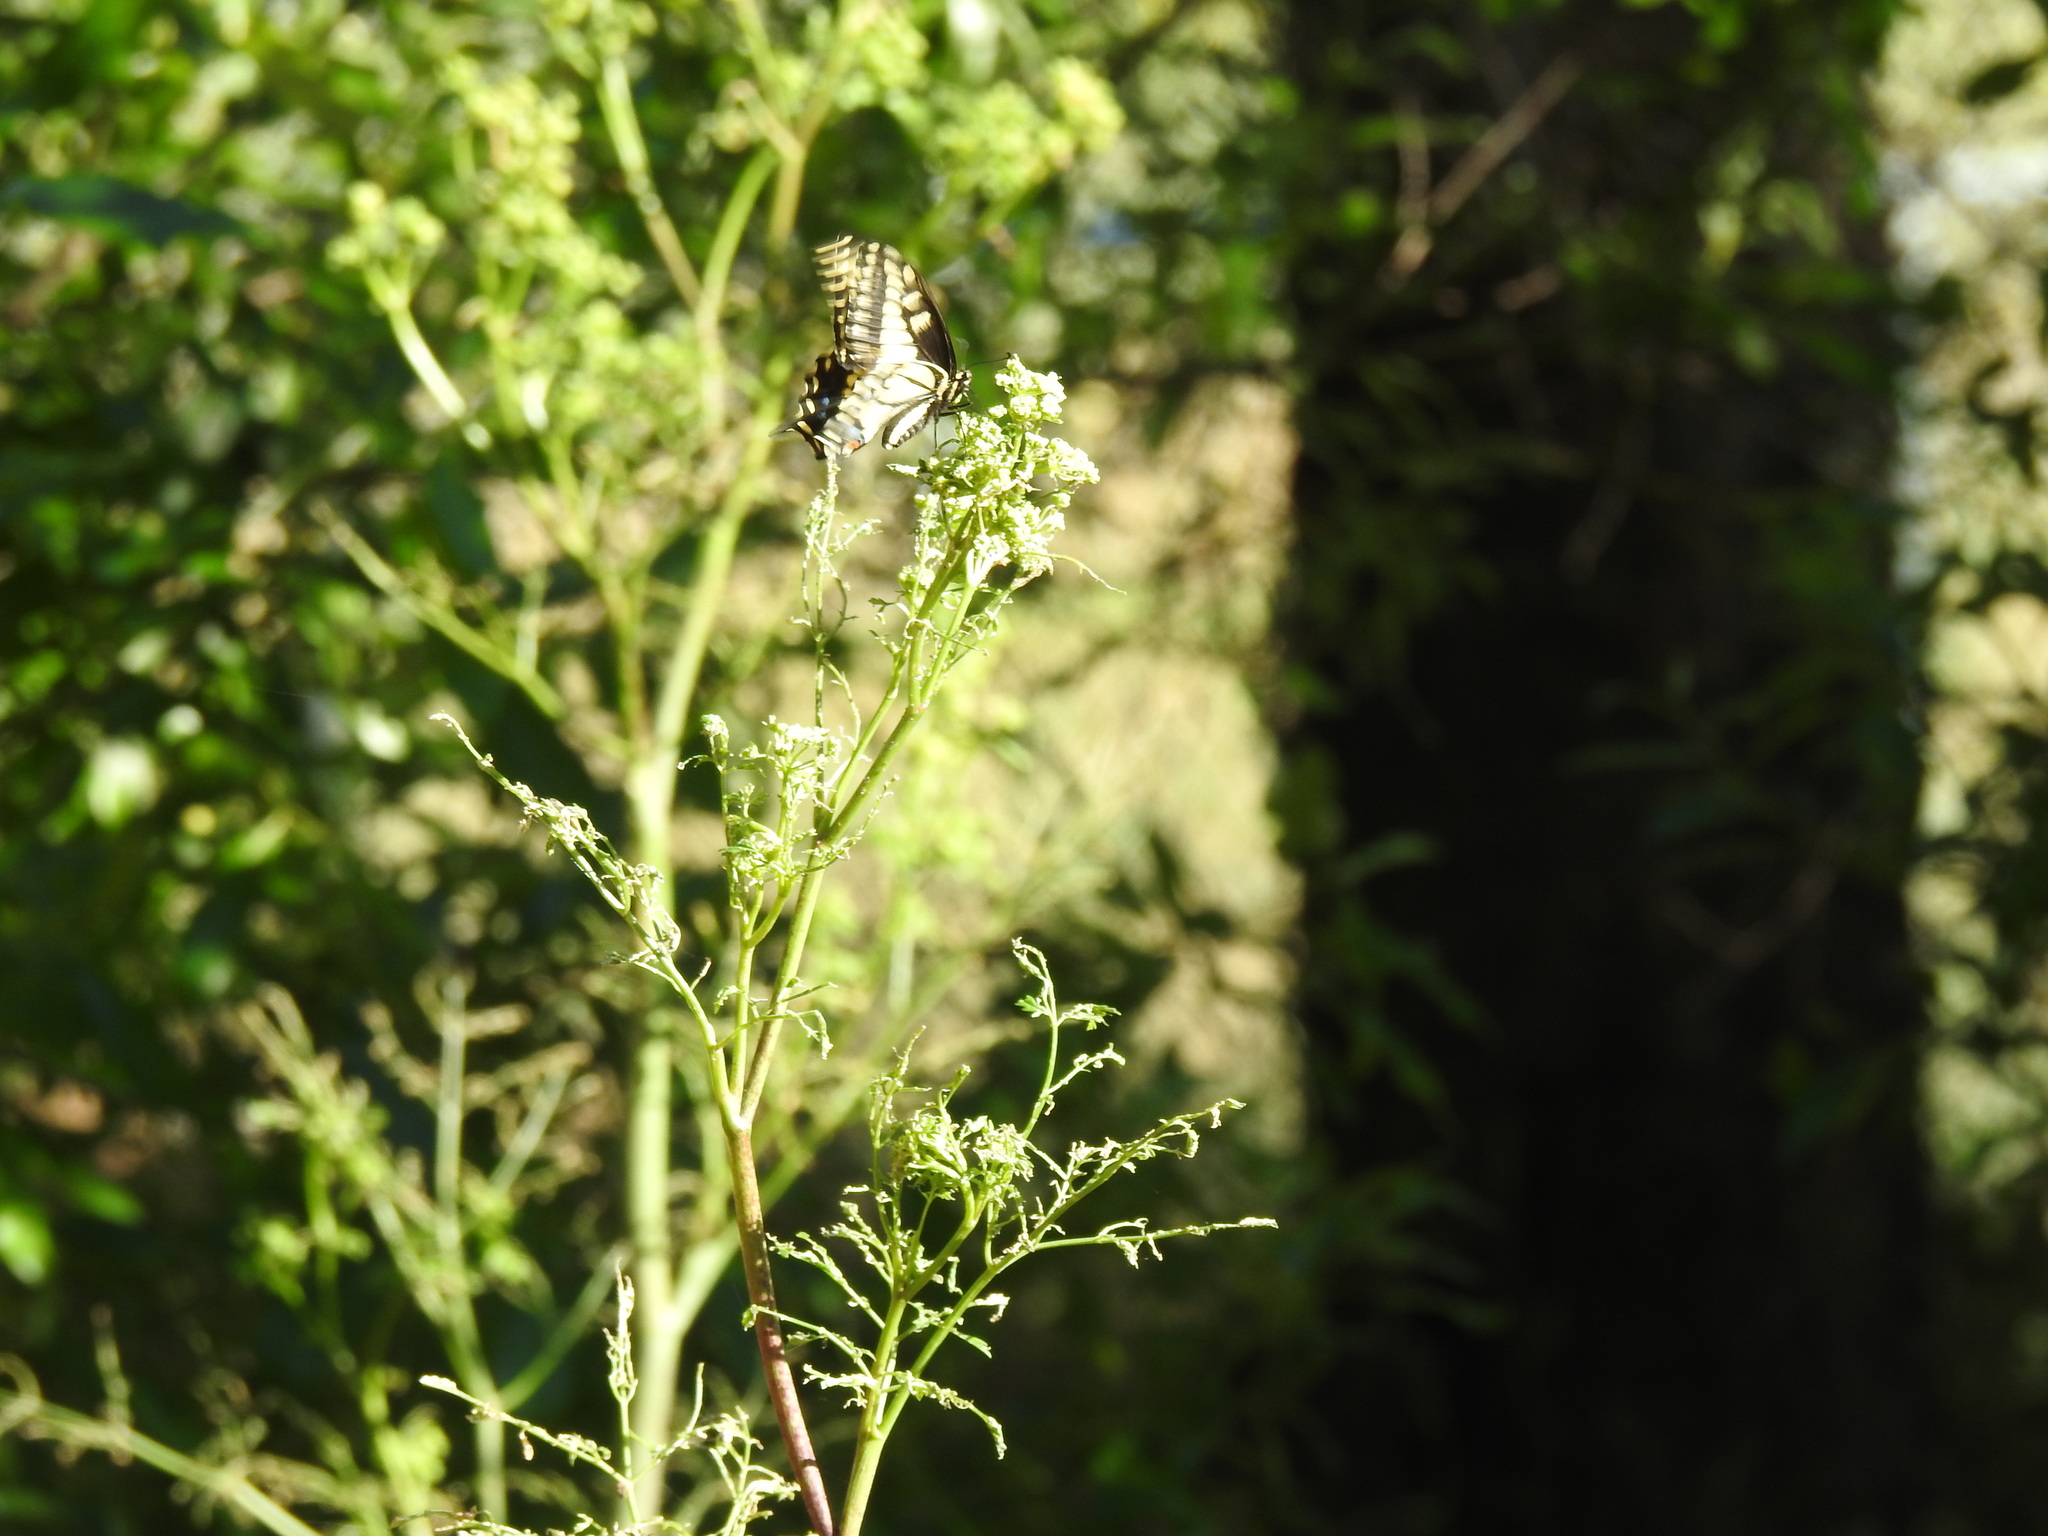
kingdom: Animalia
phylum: Arthropoda
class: Insecta
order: Lepidoptera
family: Papilionidae
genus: Papilio
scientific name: Papilio zelicaon
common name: Anise swallowtail
